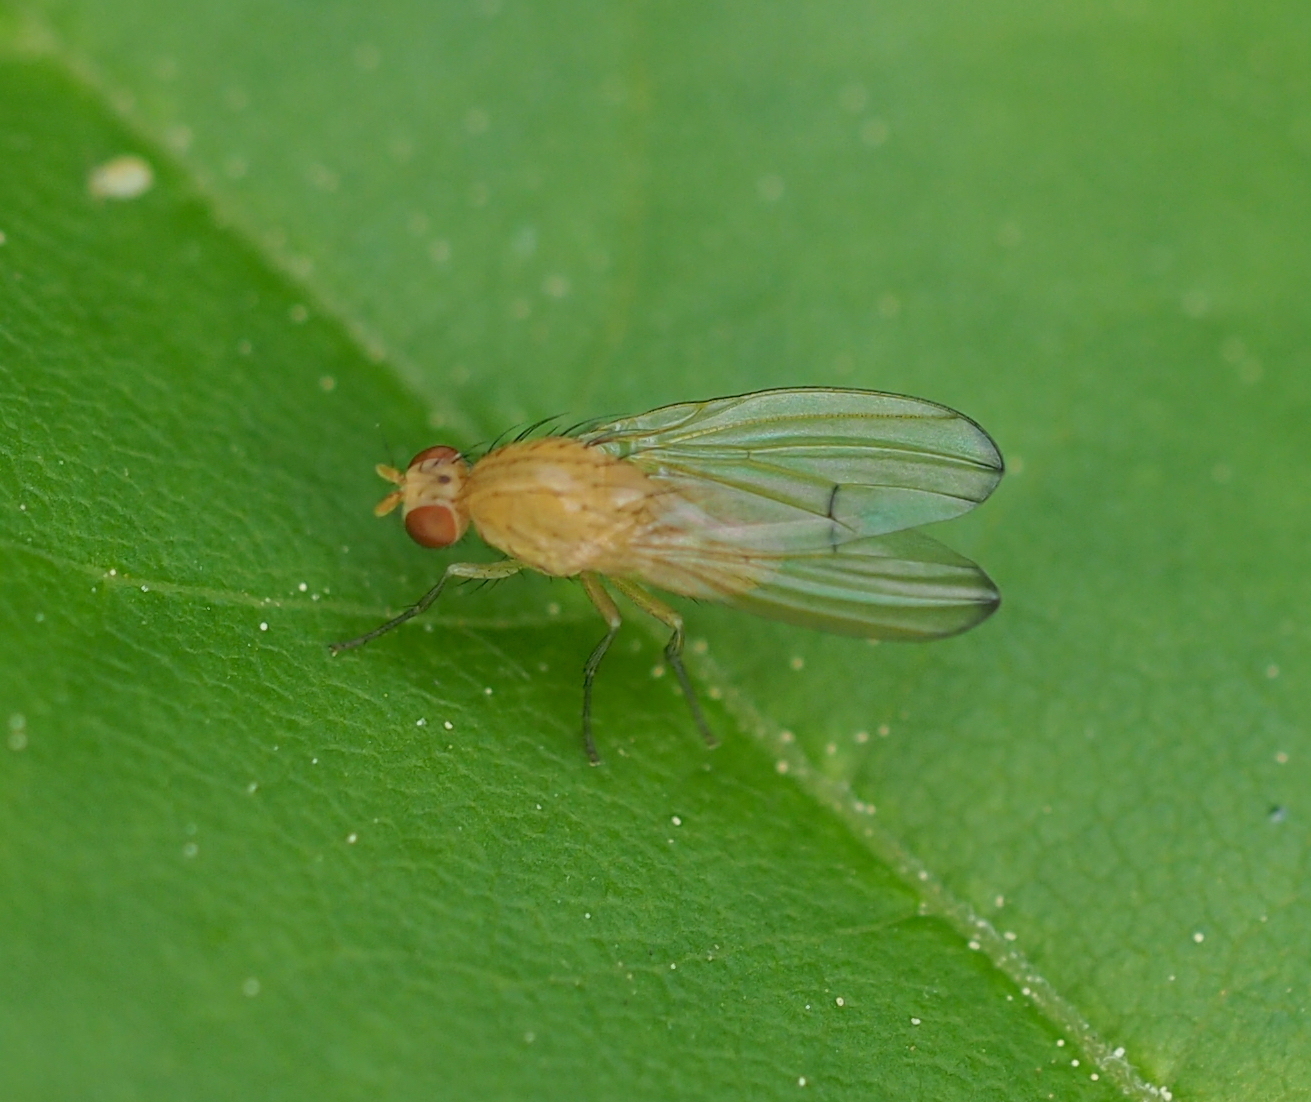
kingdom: Animalia
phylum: Arthropoda
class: Insecta
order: Diptera
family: Lauxaniidae
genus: Tricholauxania
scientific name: Tricholauxania praeusta
